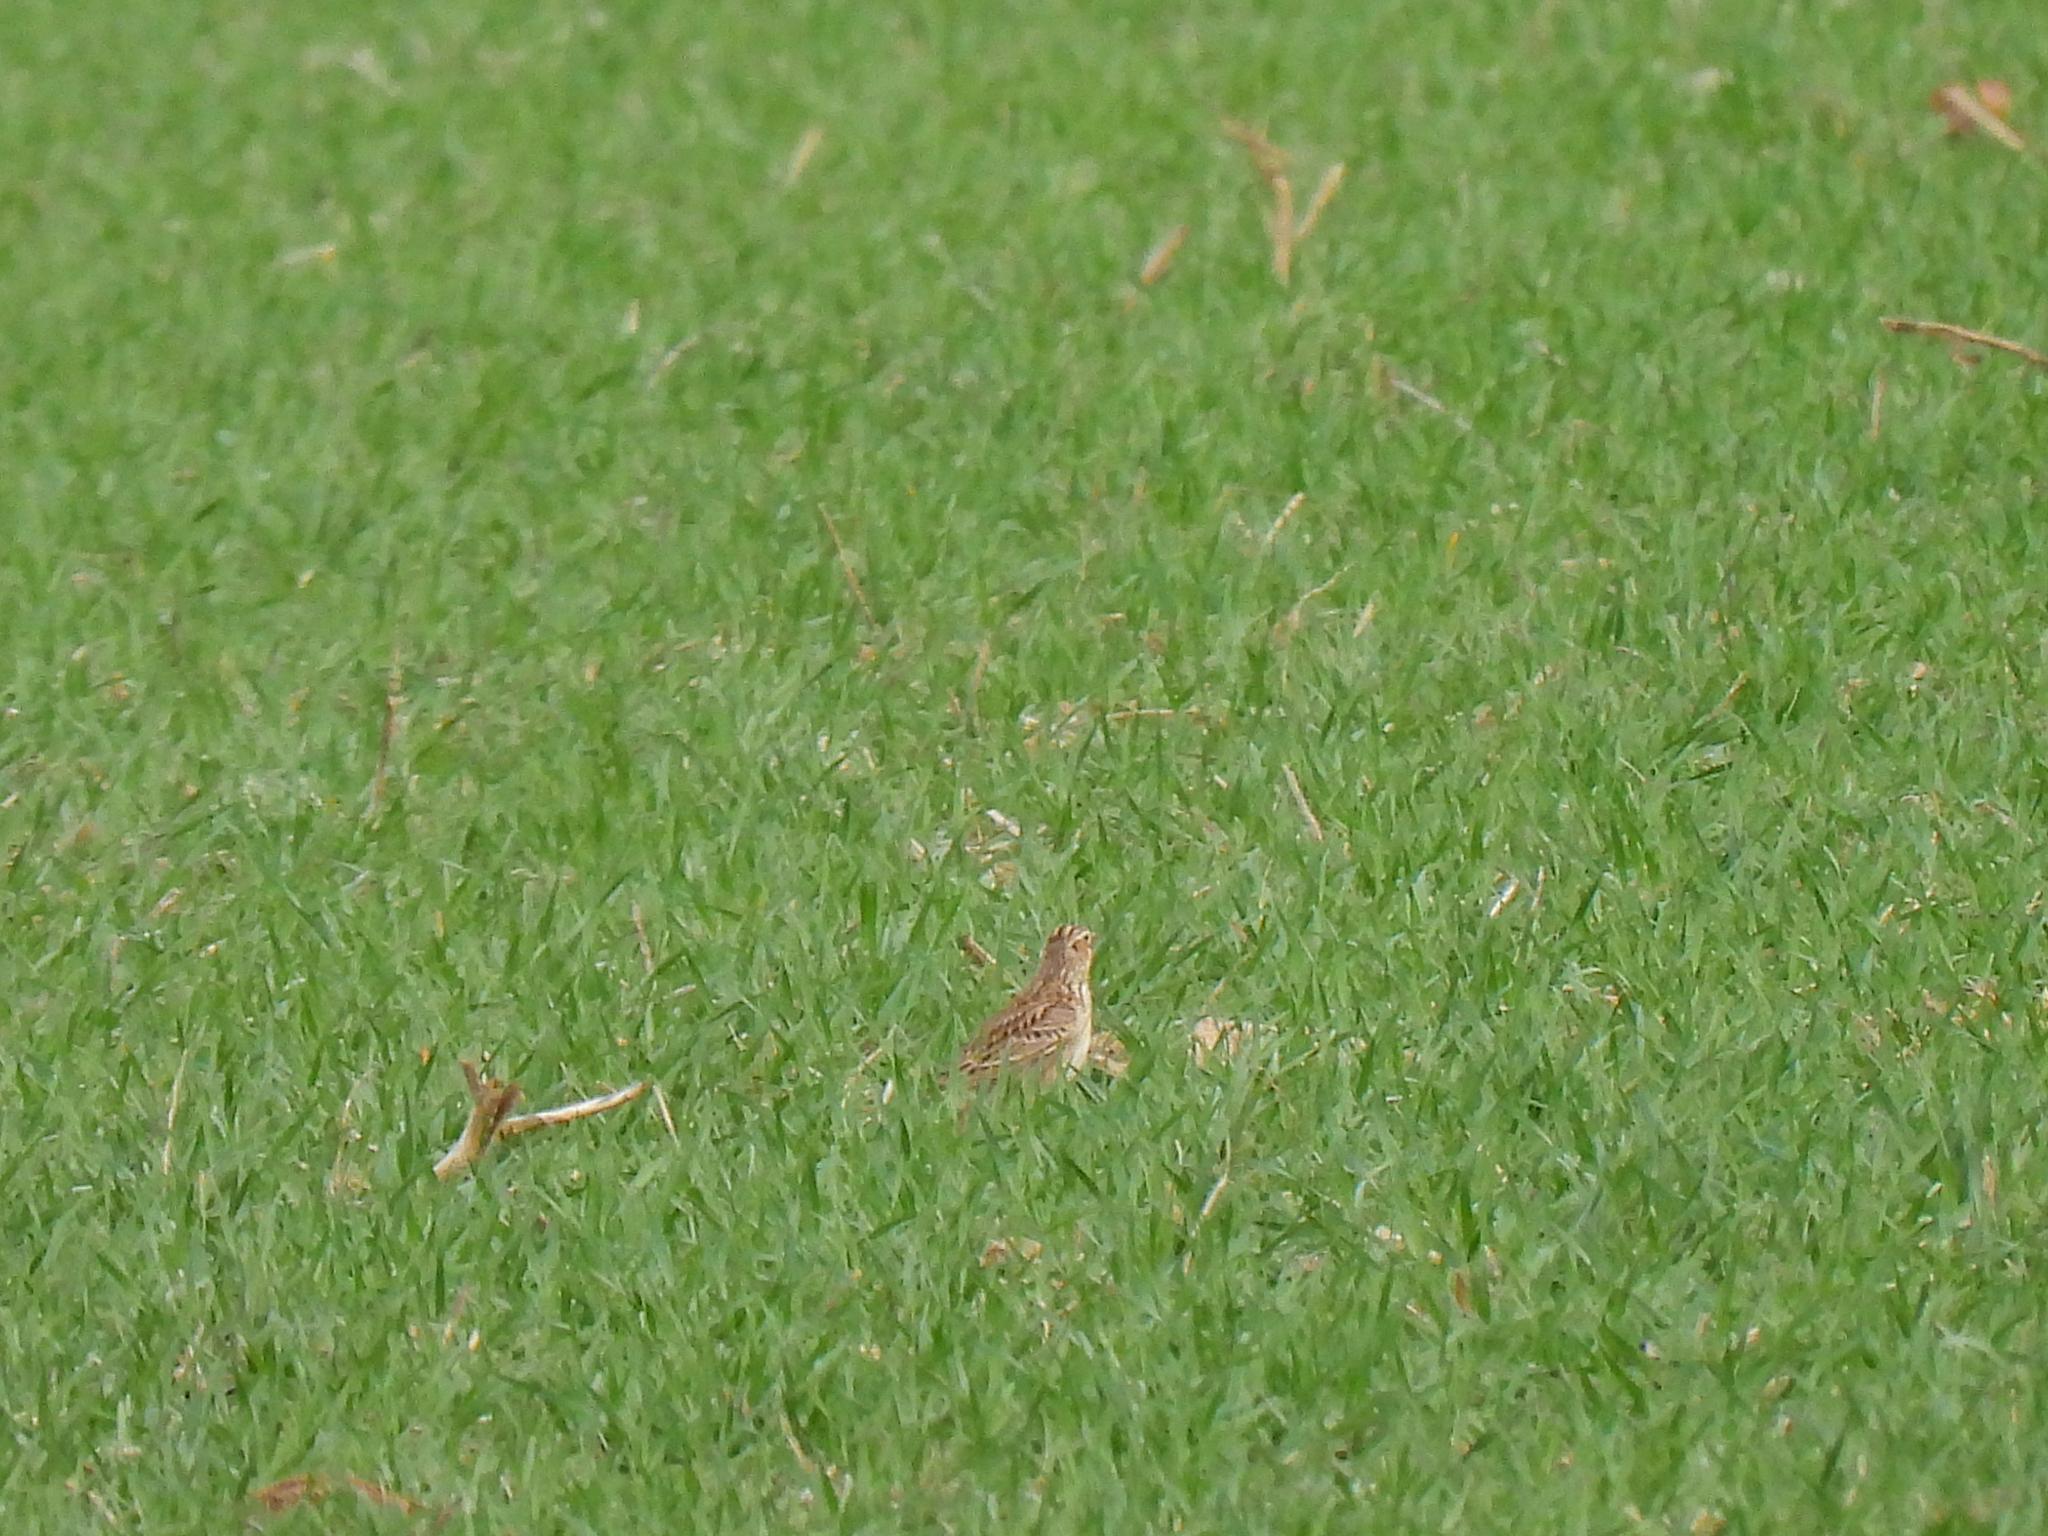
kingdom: Animalia
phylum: Chordata
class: Aves
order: Passeriformes
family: Alaudidae
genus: Alauda
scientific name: Alauda arvensis
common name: Eurasian skylark
